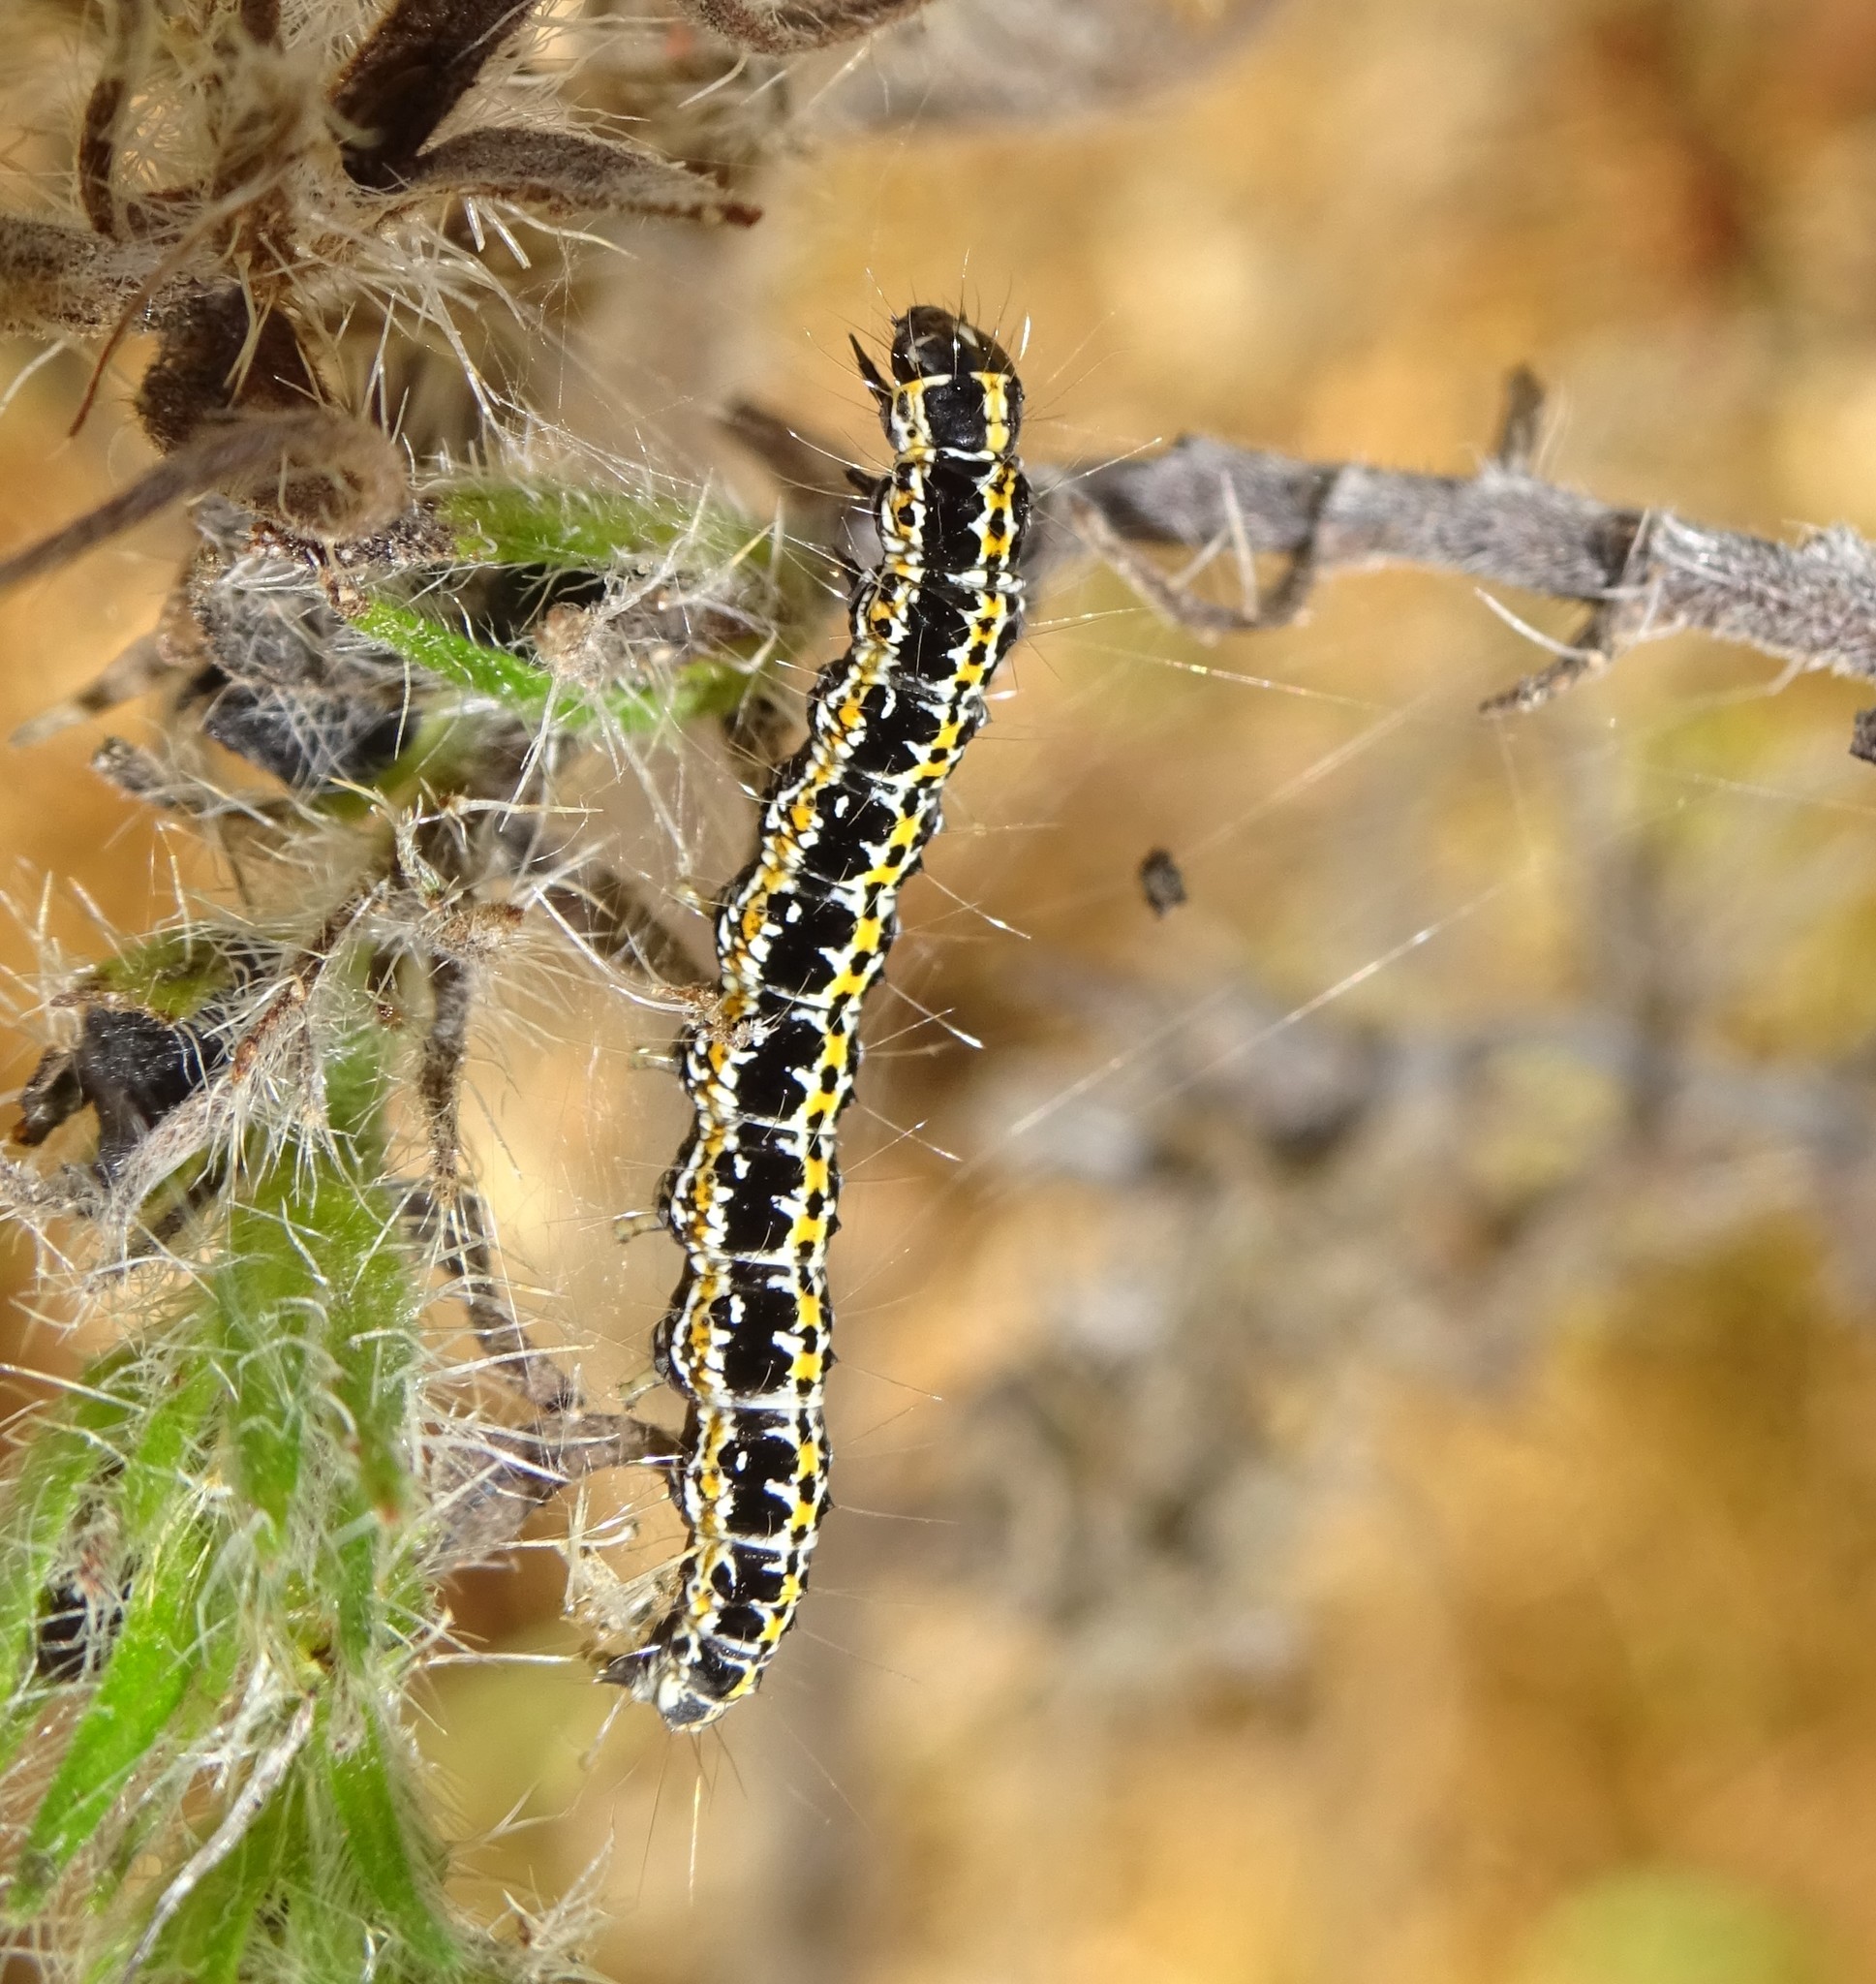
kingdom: Animalia
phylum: Arthropoda
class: Insecta
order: Lepidoptera
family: Ethmiidae
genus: Ethmia
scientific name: Ethmia bipunctella
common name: Bordered ermel
